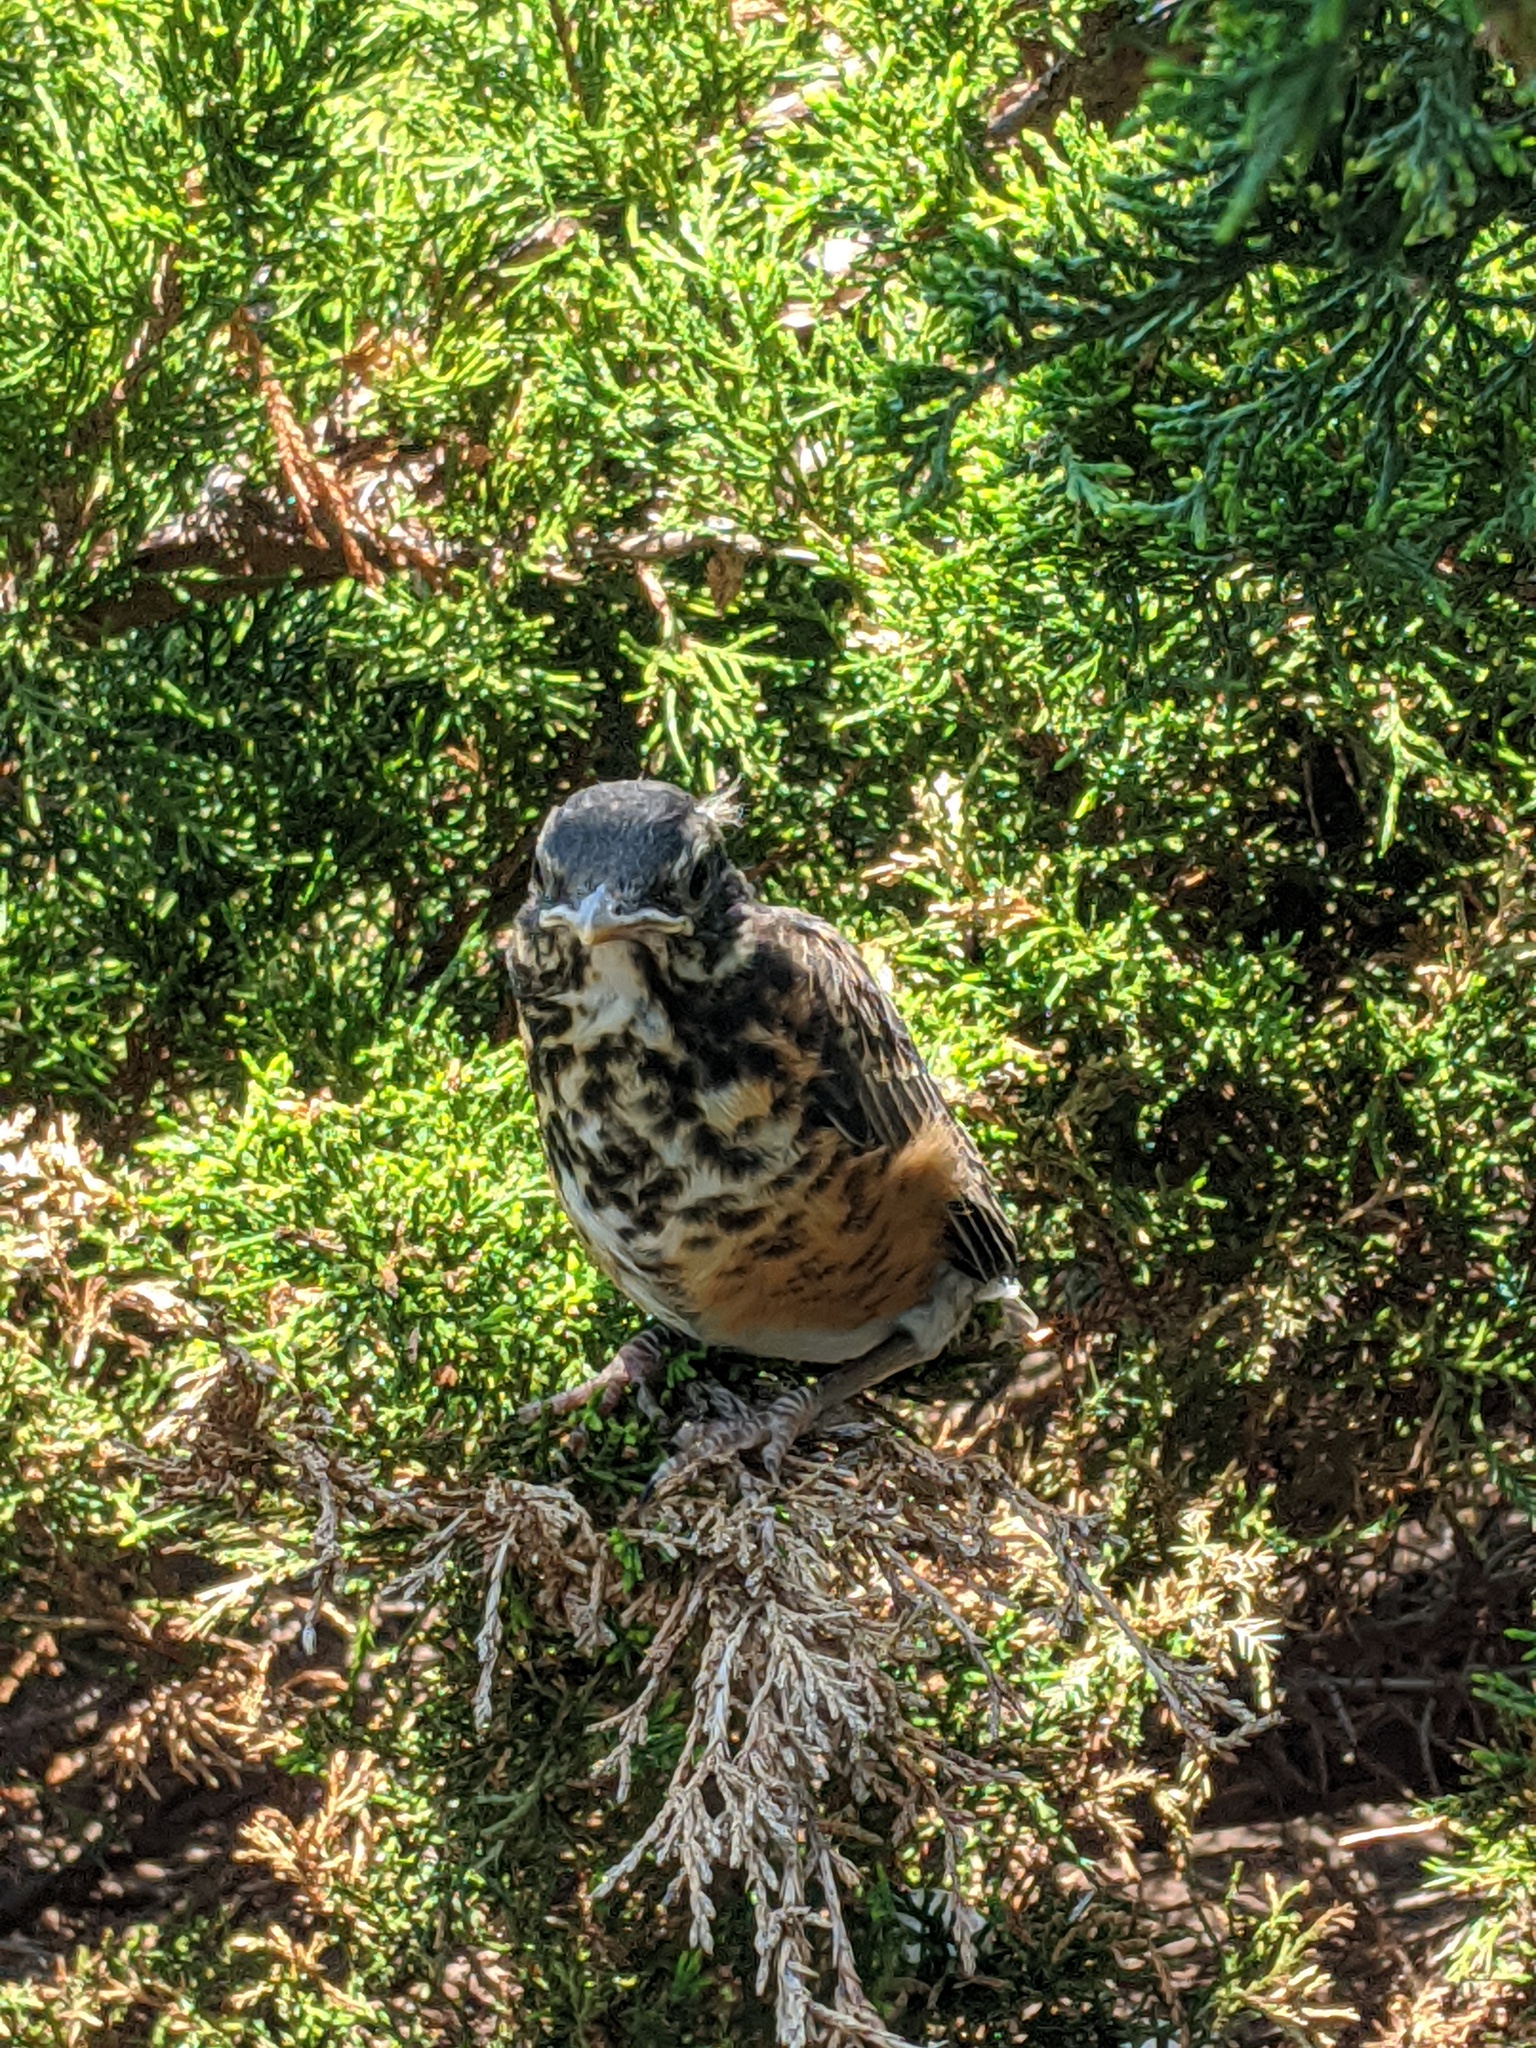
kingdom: Animalia
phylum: Chordata
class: Aves
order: Passeriformes
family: Turdidae
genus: Turdus
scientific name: Turdus migratorius
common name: American robin
